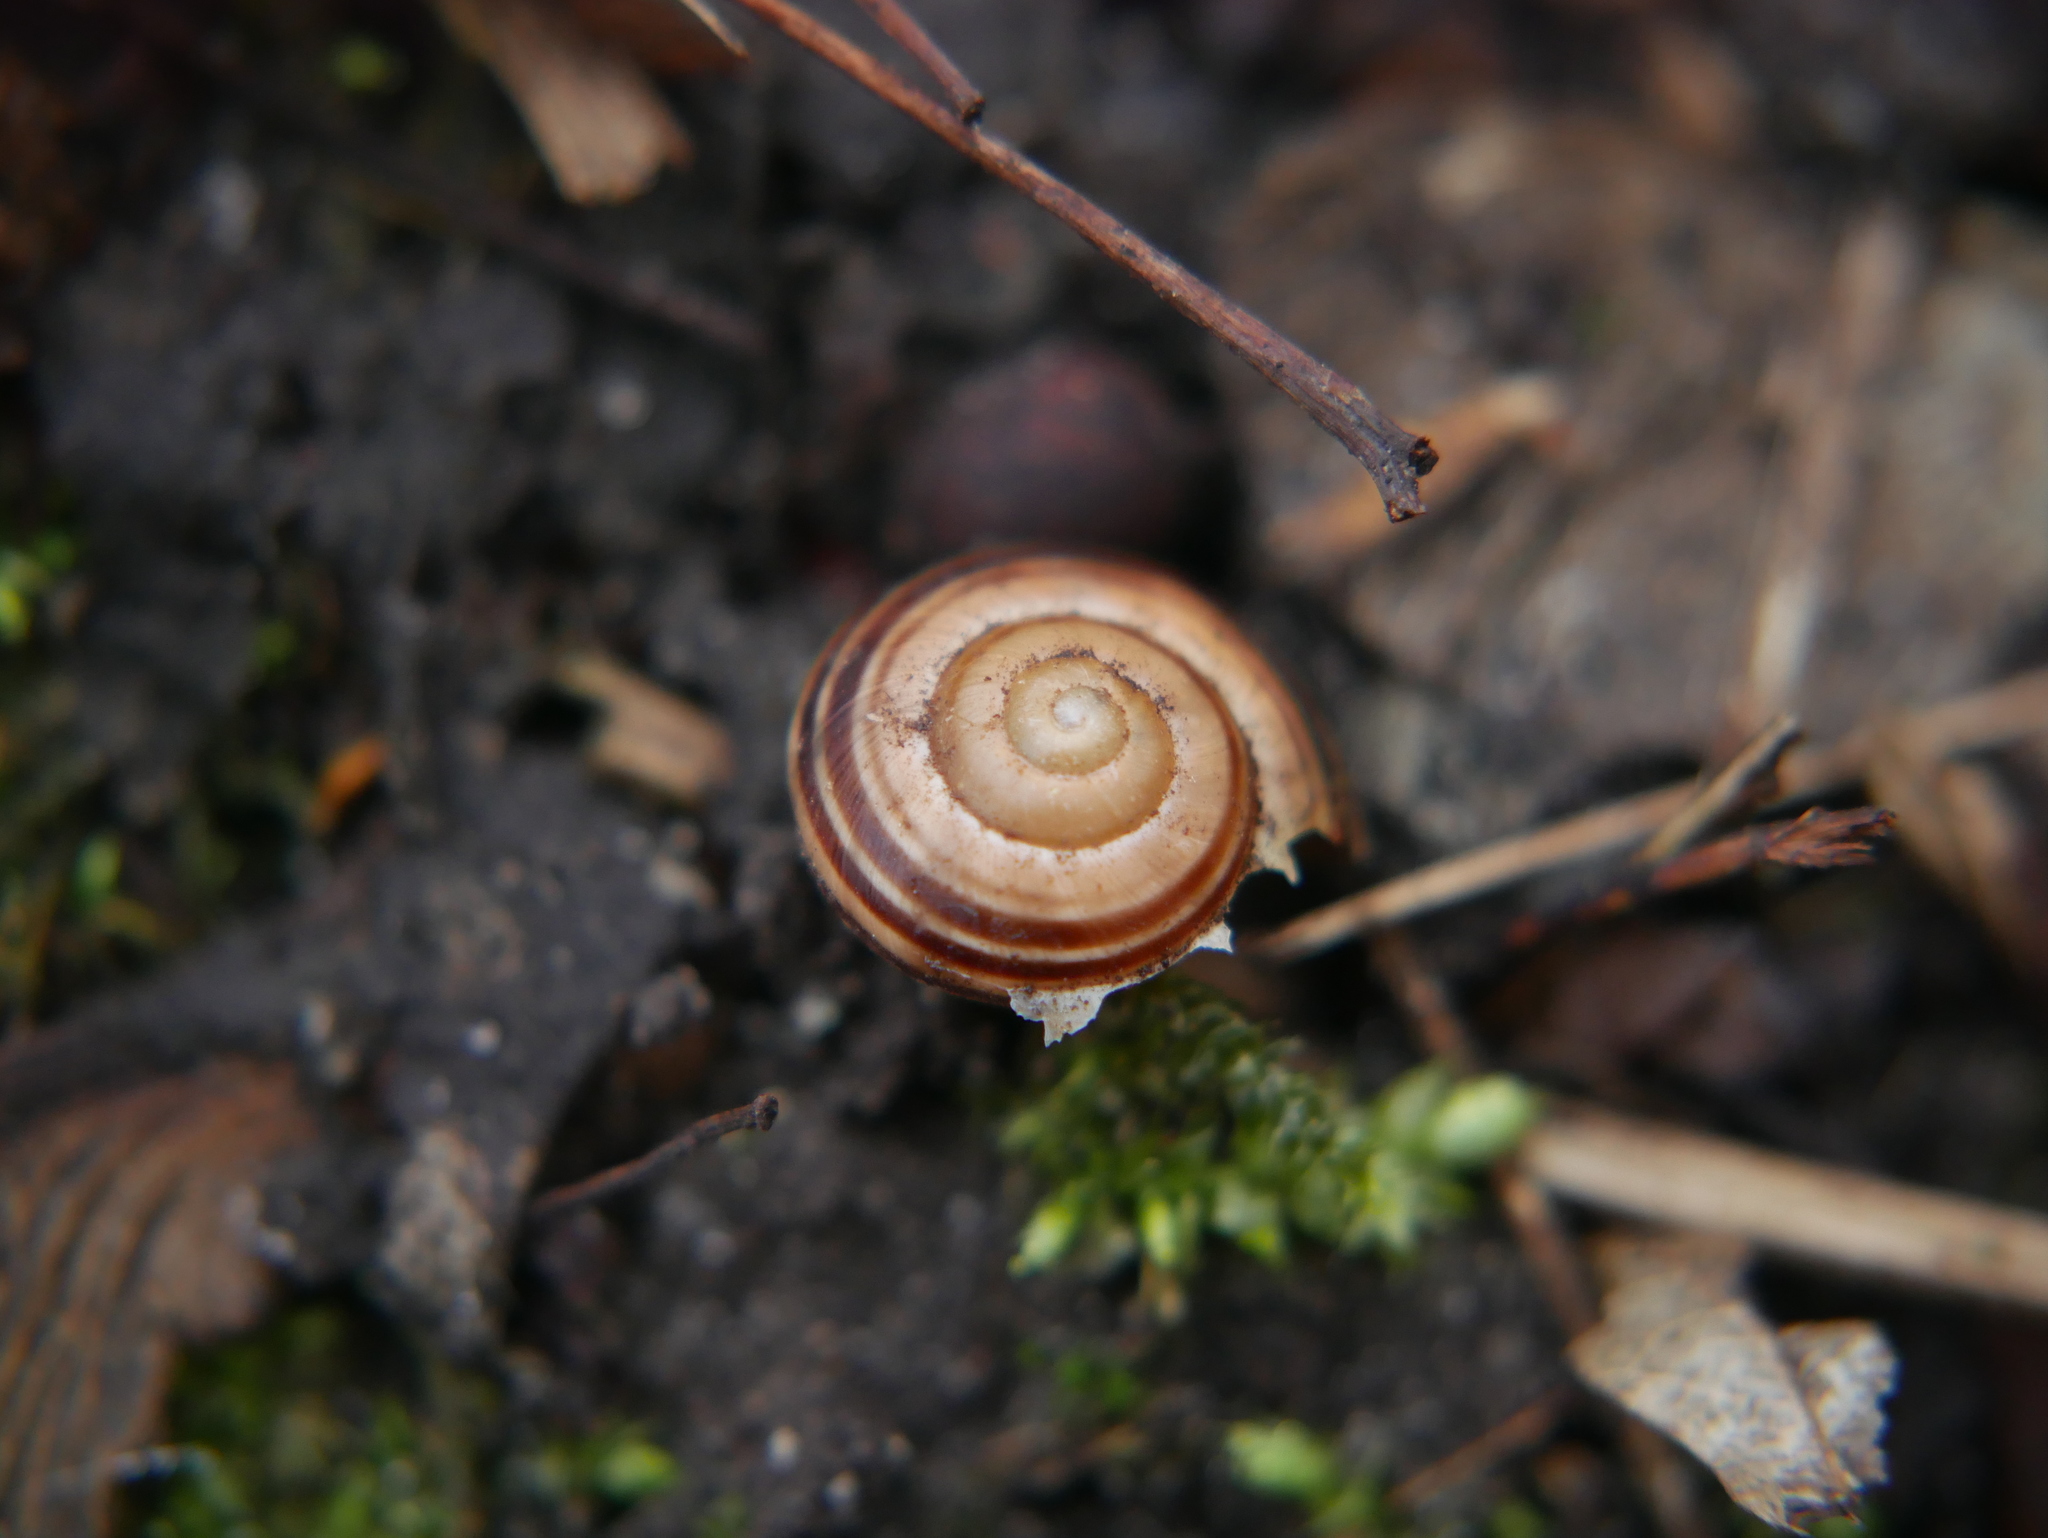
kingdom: Animalia
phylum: Mollusca
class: Gastropoda
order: Stylommatophora
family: Helicidae
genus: Cepaea
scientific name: Cepaea
